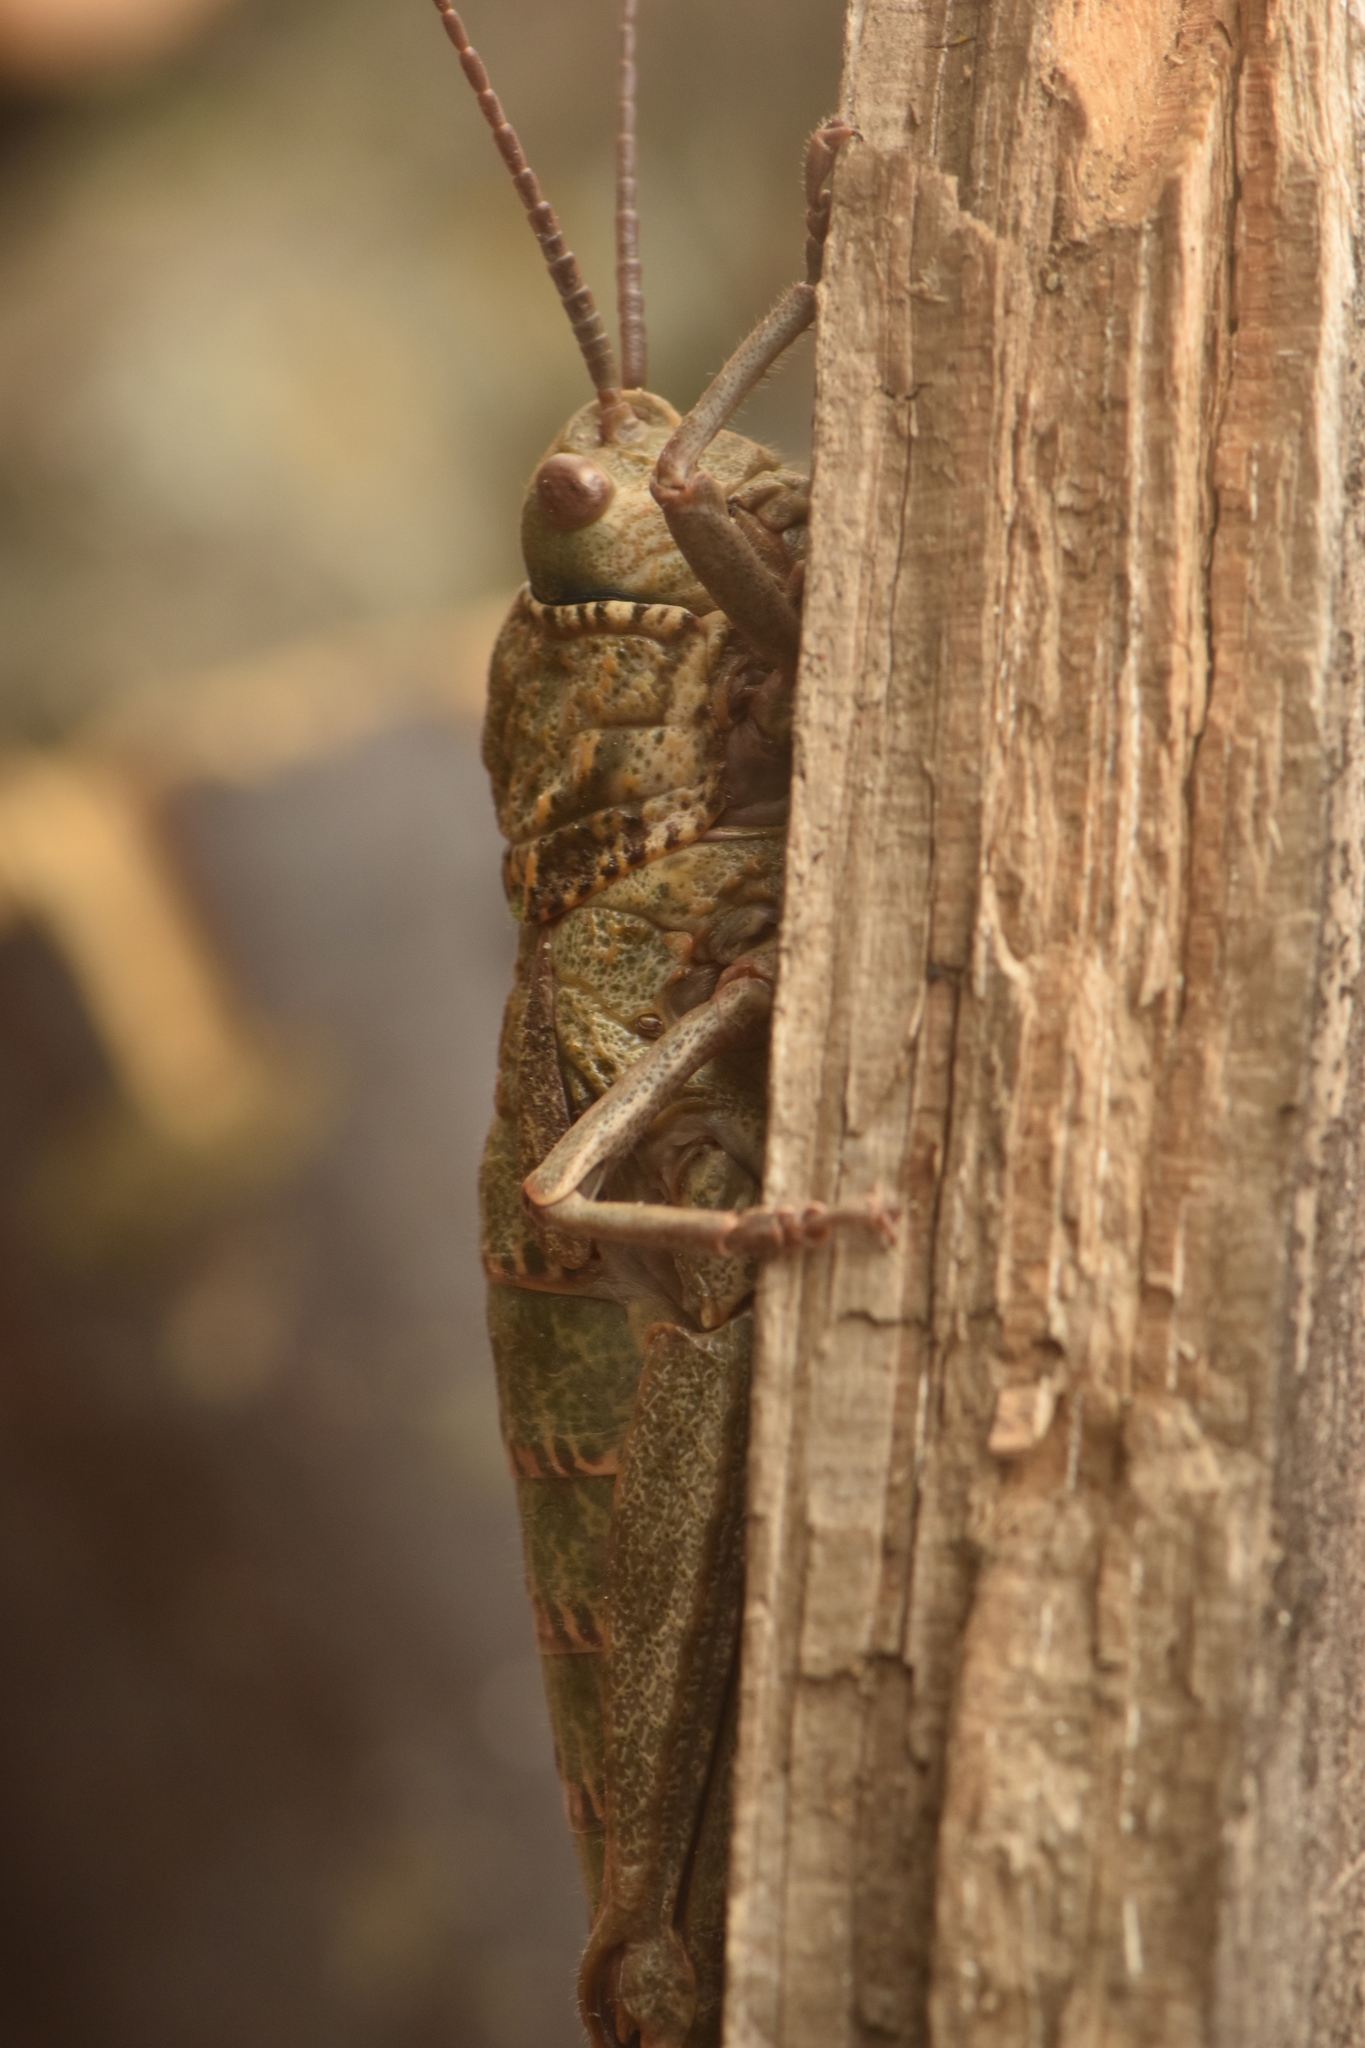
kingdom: Animalia
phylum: Arthropoda
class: Insecta
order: Orthoptera
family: Pamphagidae
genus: Acinipe
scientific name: Acinipe hesperica
